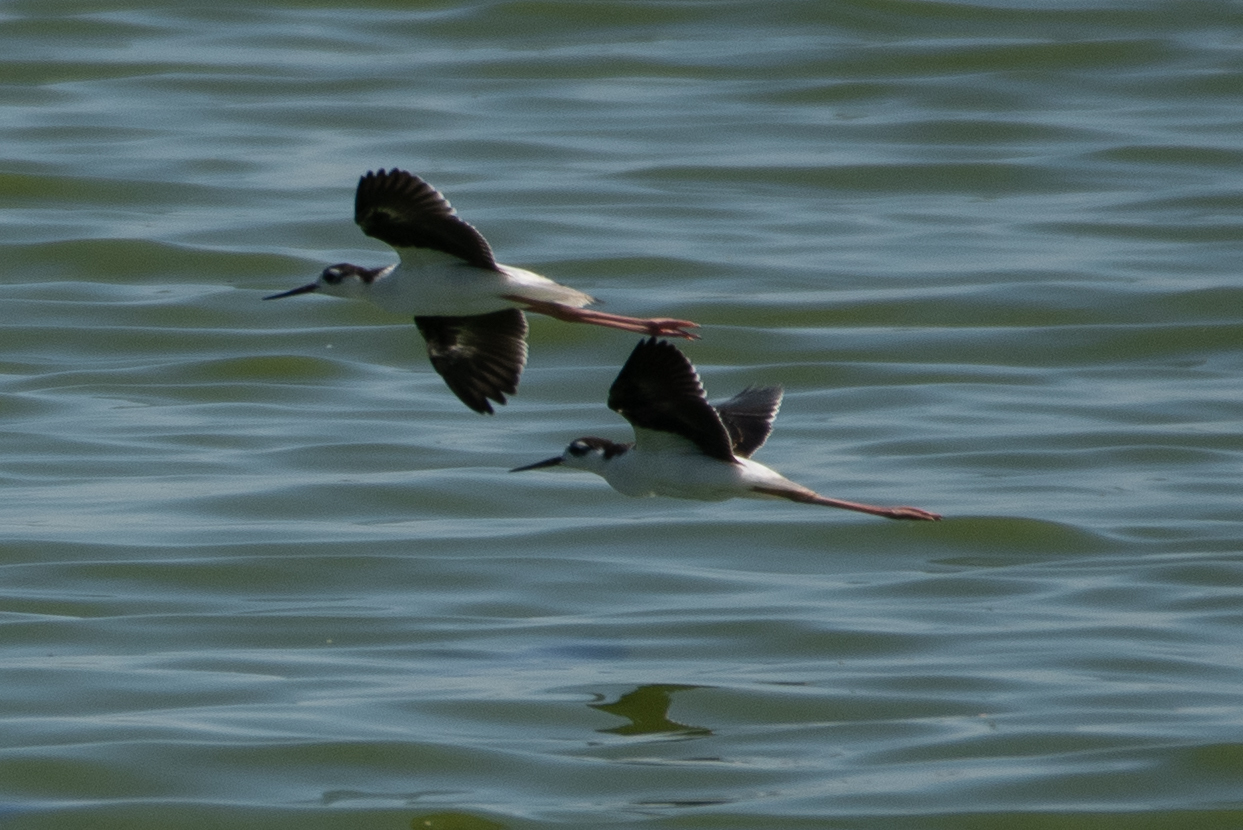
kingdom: Animalia
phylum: Chordata
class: Aves
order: Charadriiformes
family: Recurvirostridae
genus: Himantopus
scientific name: Himantopus mexicanus
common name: Black-necked stilt
